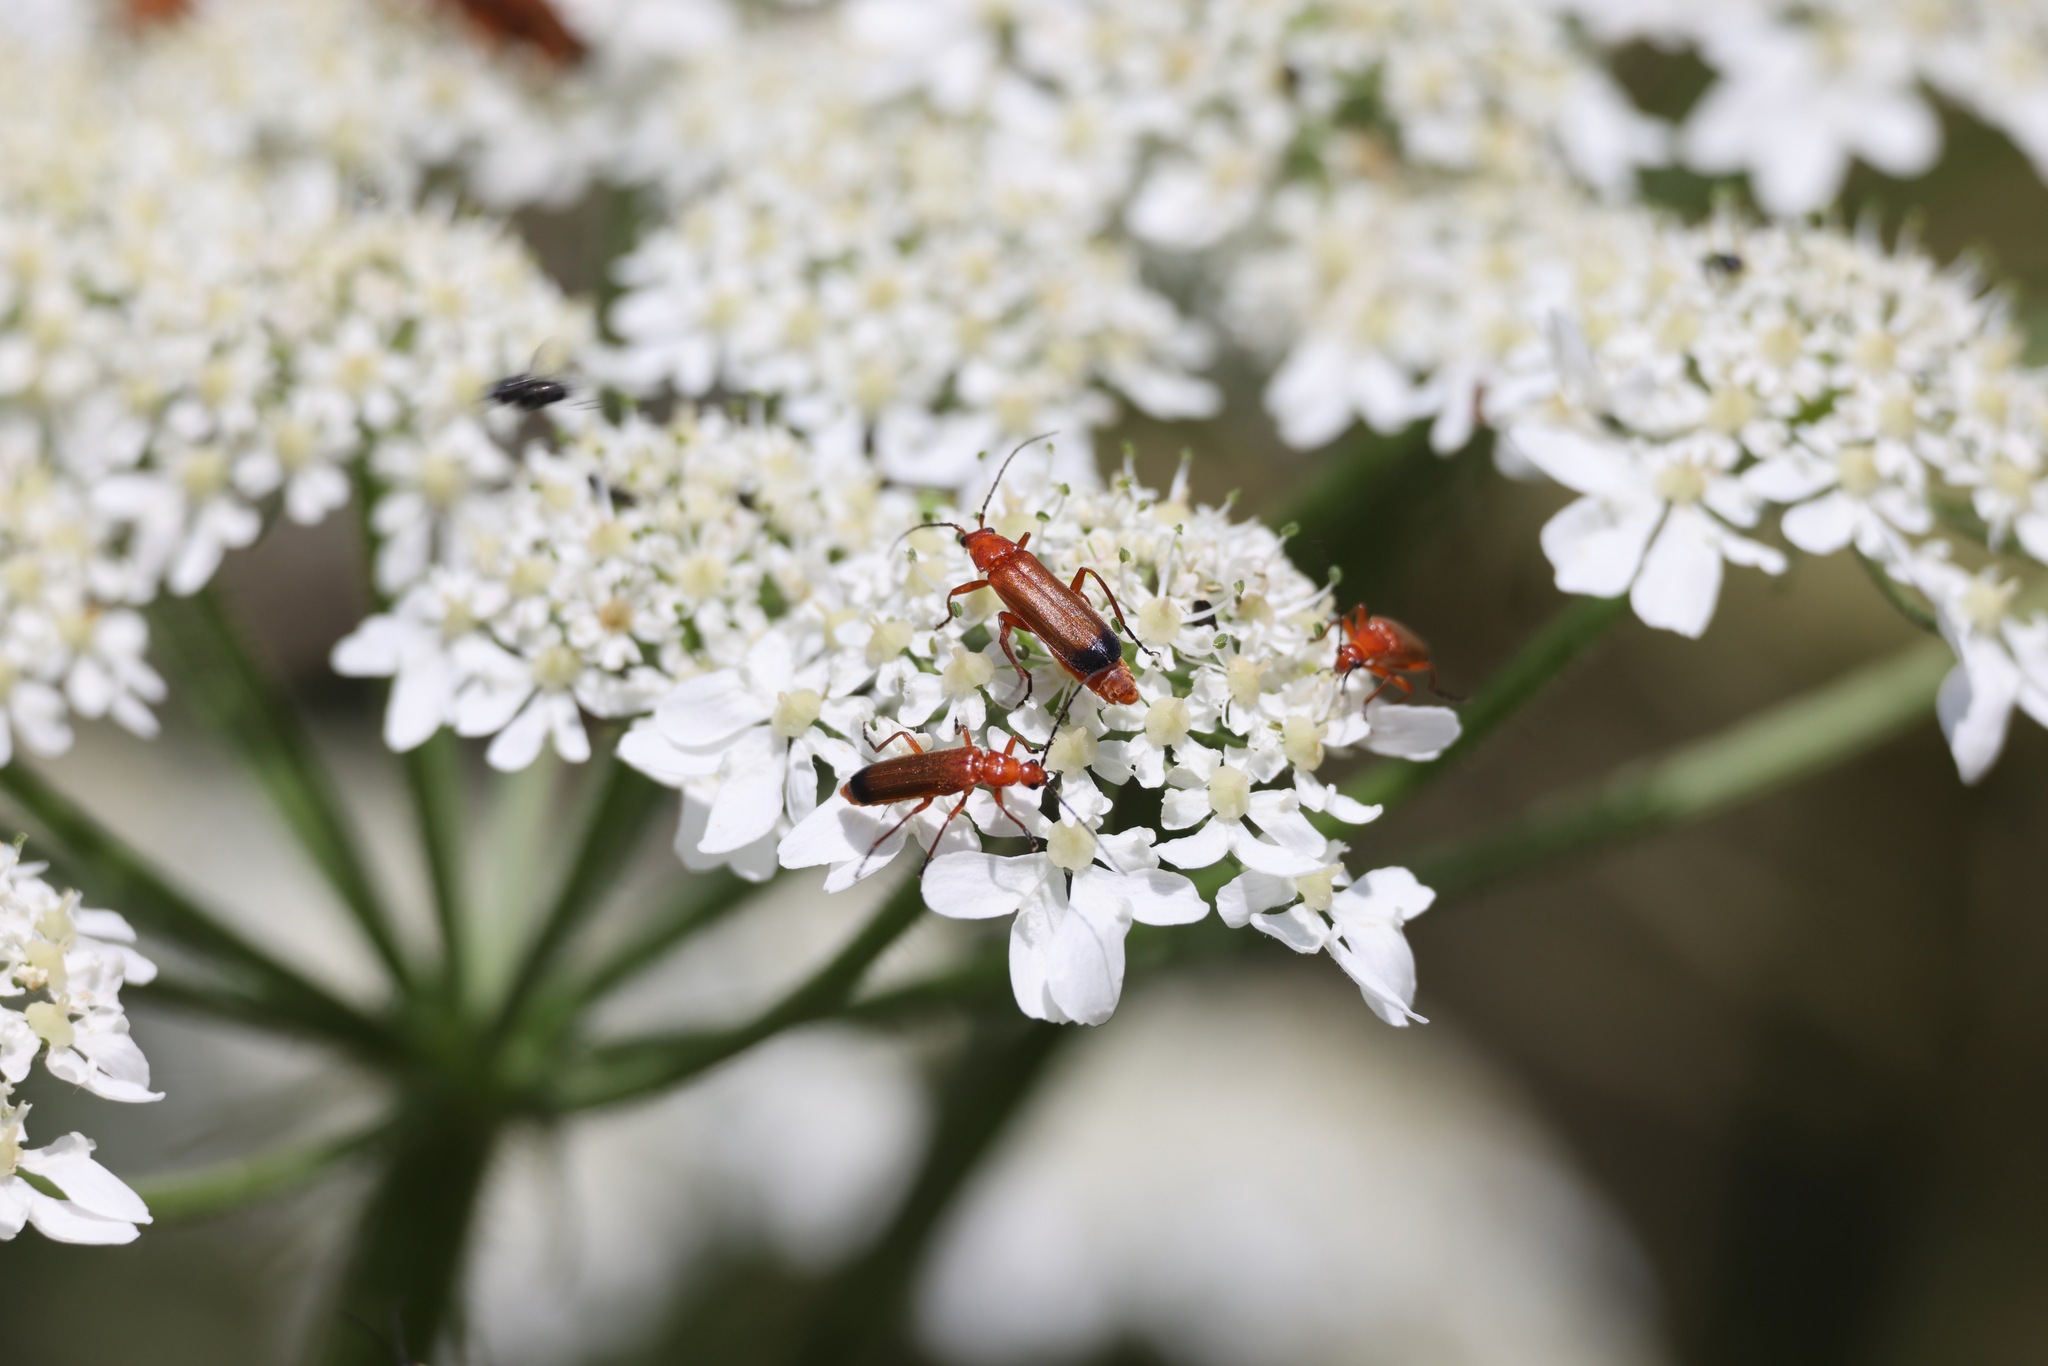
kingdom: Animalia
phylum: Arthropoda
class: Insecta
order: Coleoptera
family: Cantharidae
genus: Rhagonycha
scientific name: Rhagonycha fulva
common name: Common red soldier beetle
